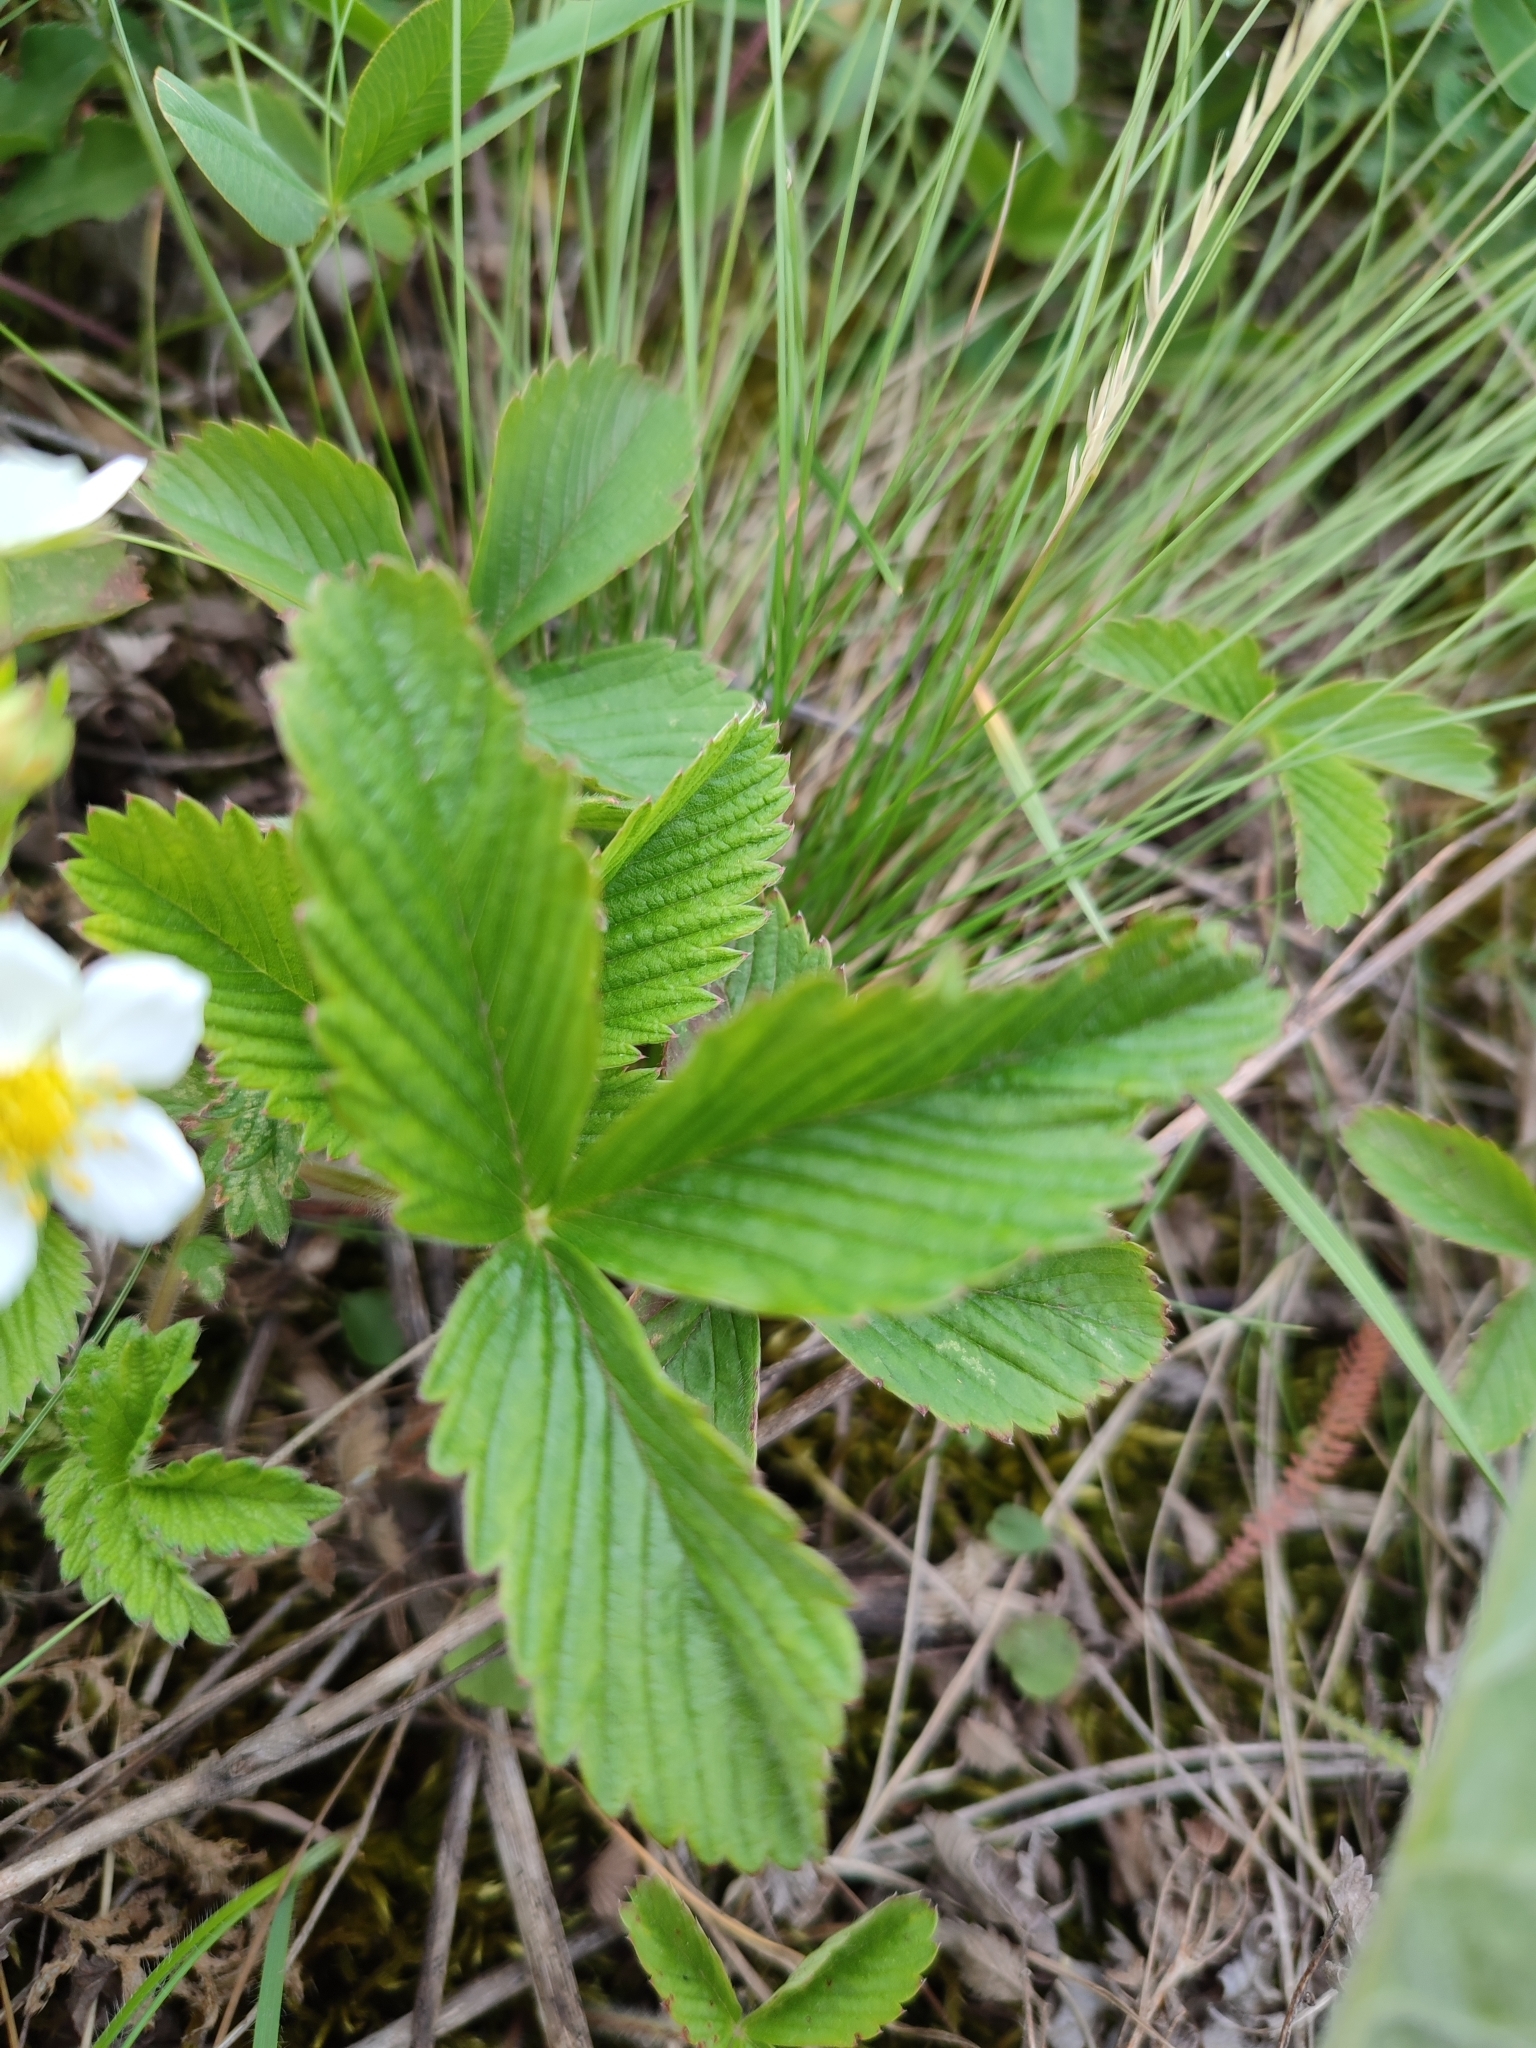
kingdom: Plantae
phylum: Tracheophyta
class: Magnoliopsida
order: Rosales
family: Rosaceae
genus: Fragaria
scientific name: Fragaria viridis
